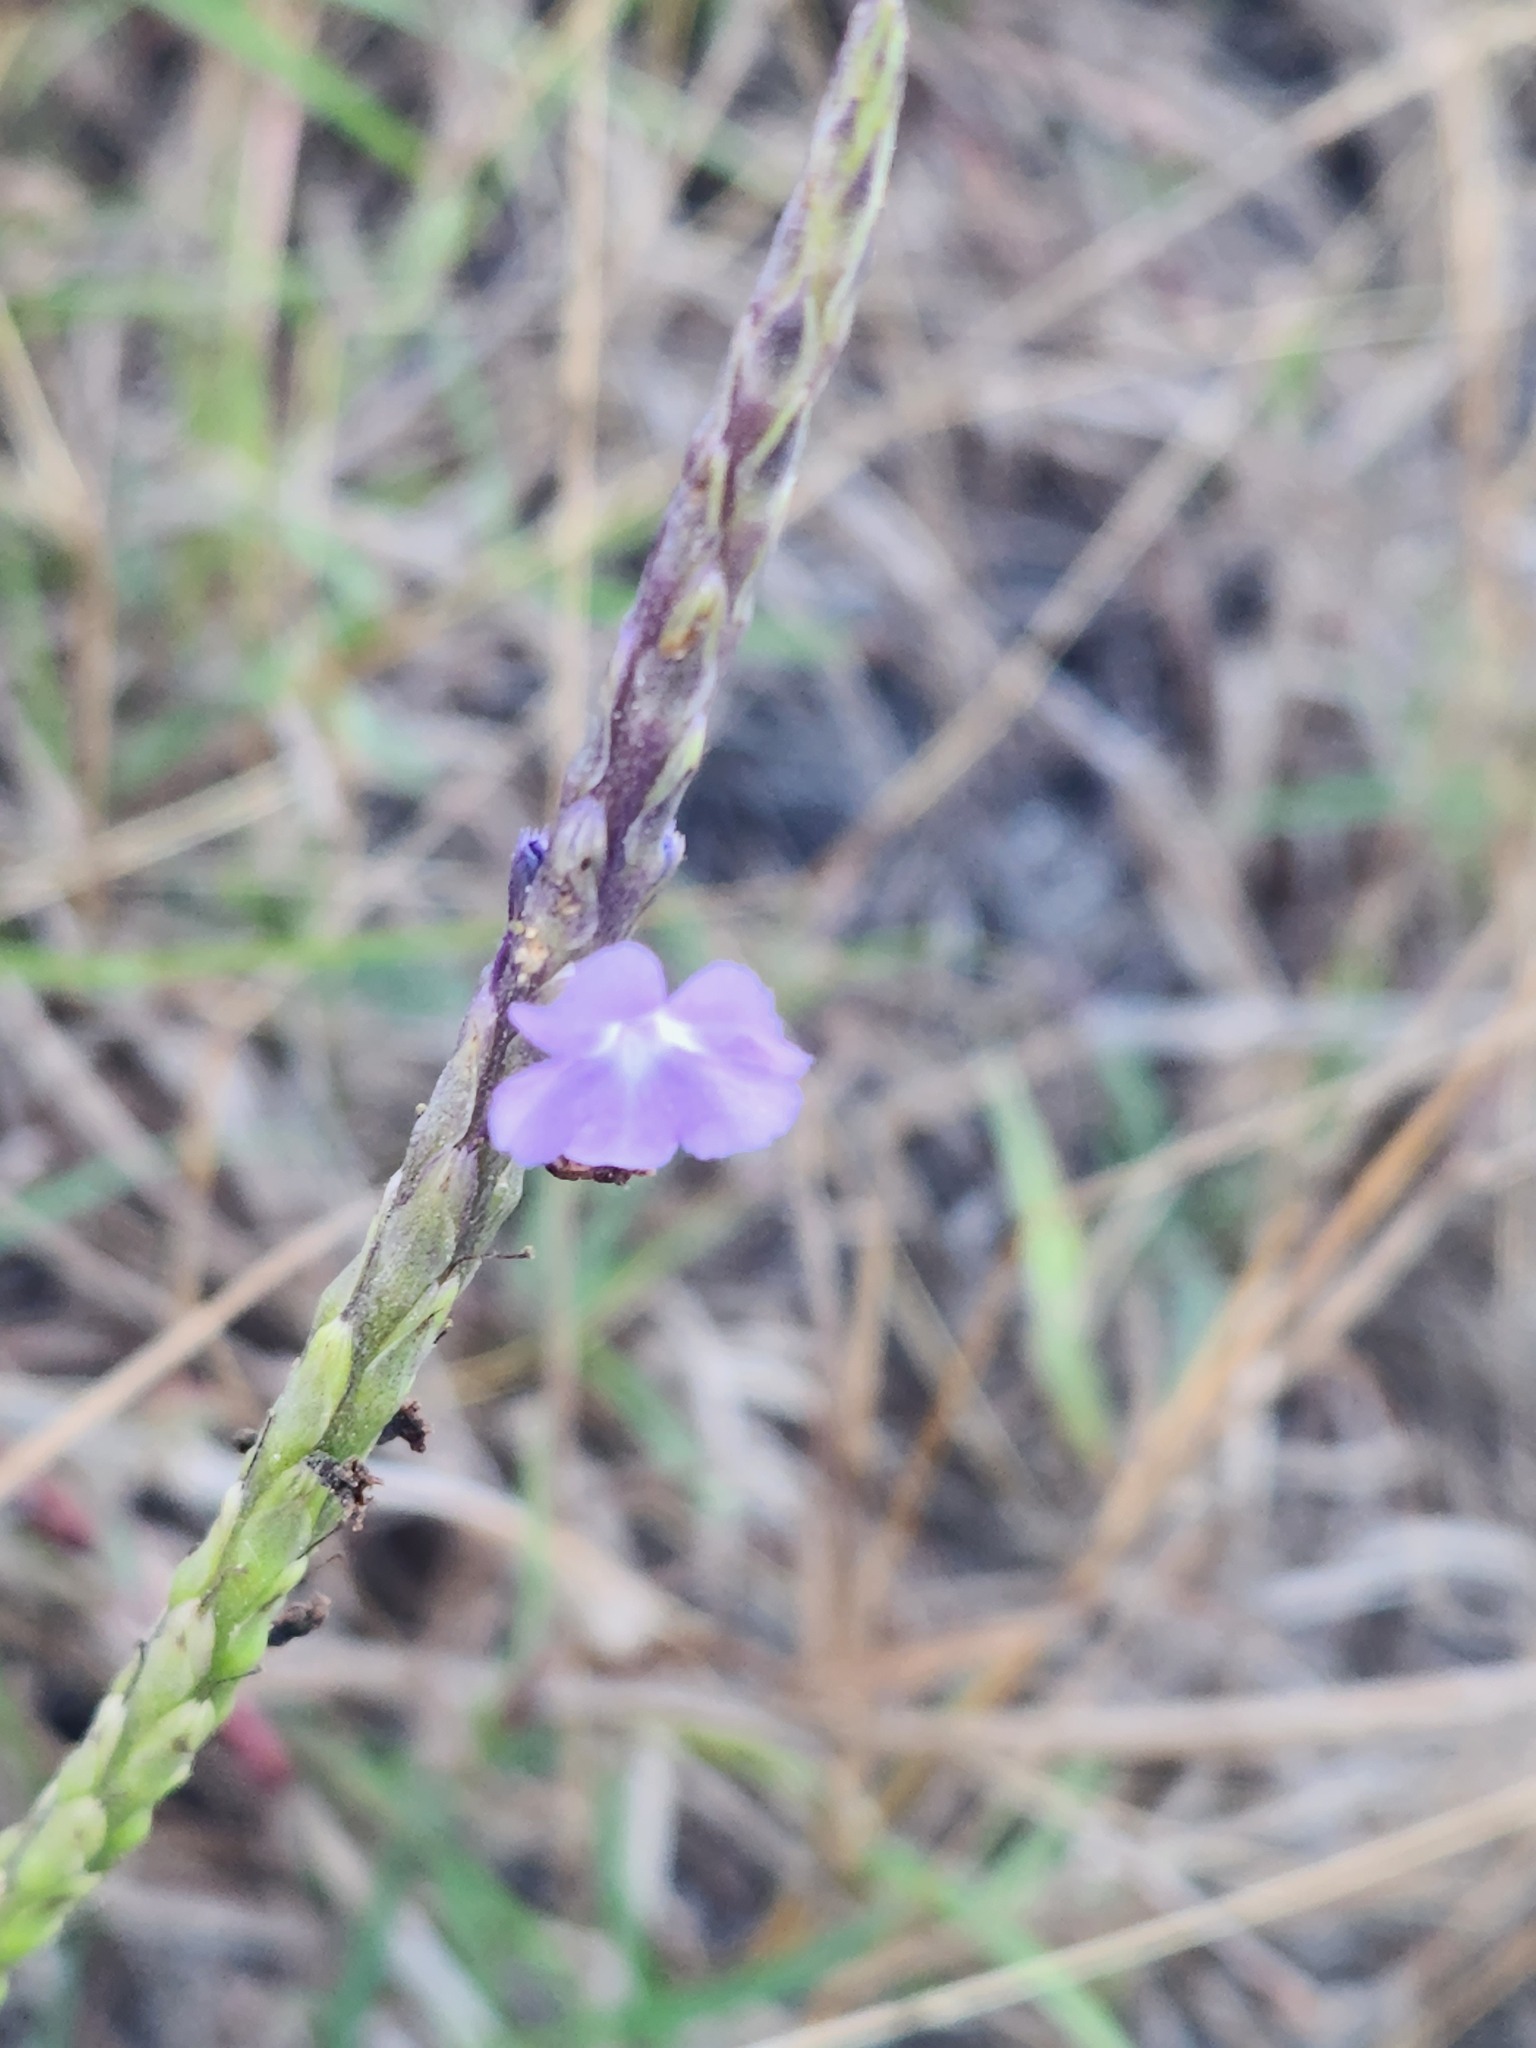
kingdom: Plantae
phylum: Tracheophyta
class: Magnoliopsida
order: Lamiales
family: Verbenaceae
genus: Stachytarpheta
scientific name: Stachytarpheta jamaicensis
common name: Light-blue snakeweed
